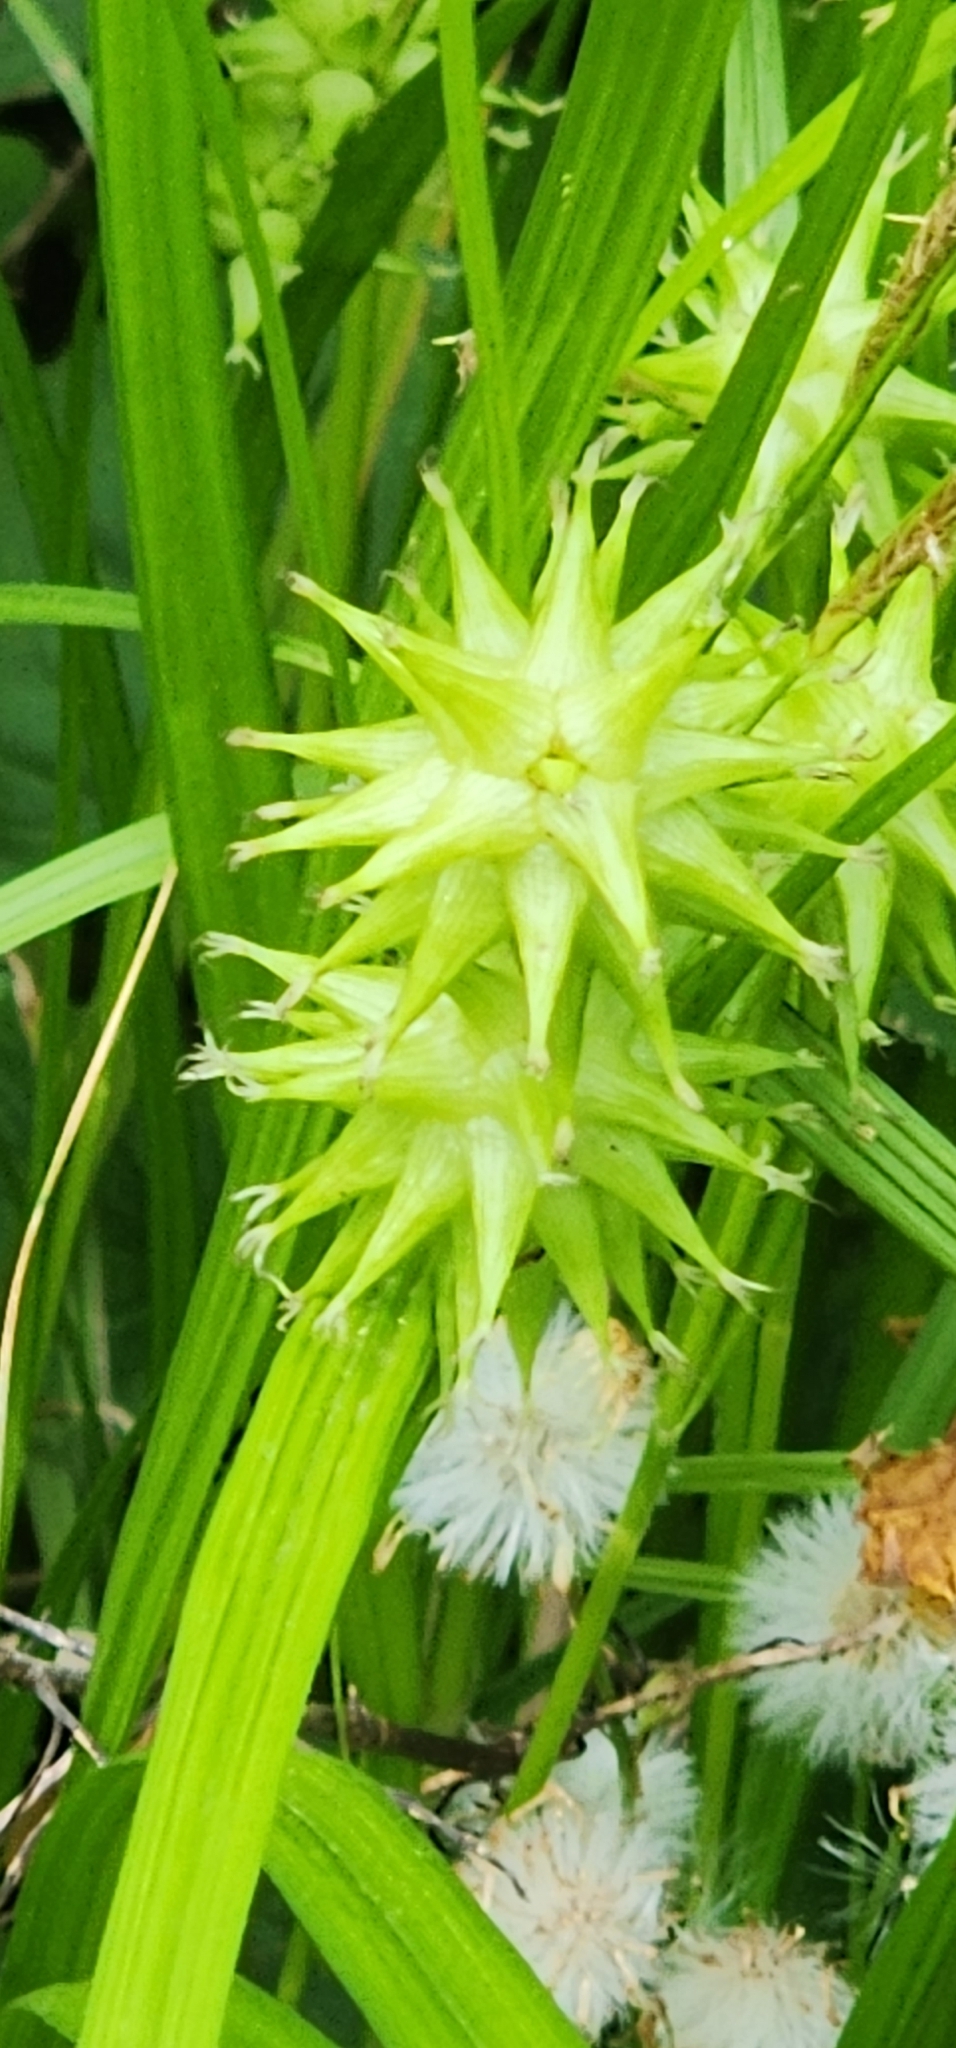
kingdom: Plantae
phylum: Tracheophyta
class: Liliopsida
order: Poales
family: Cyperaceae
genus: Carex
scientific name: Carex grayi
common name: Asa gray's sedge
